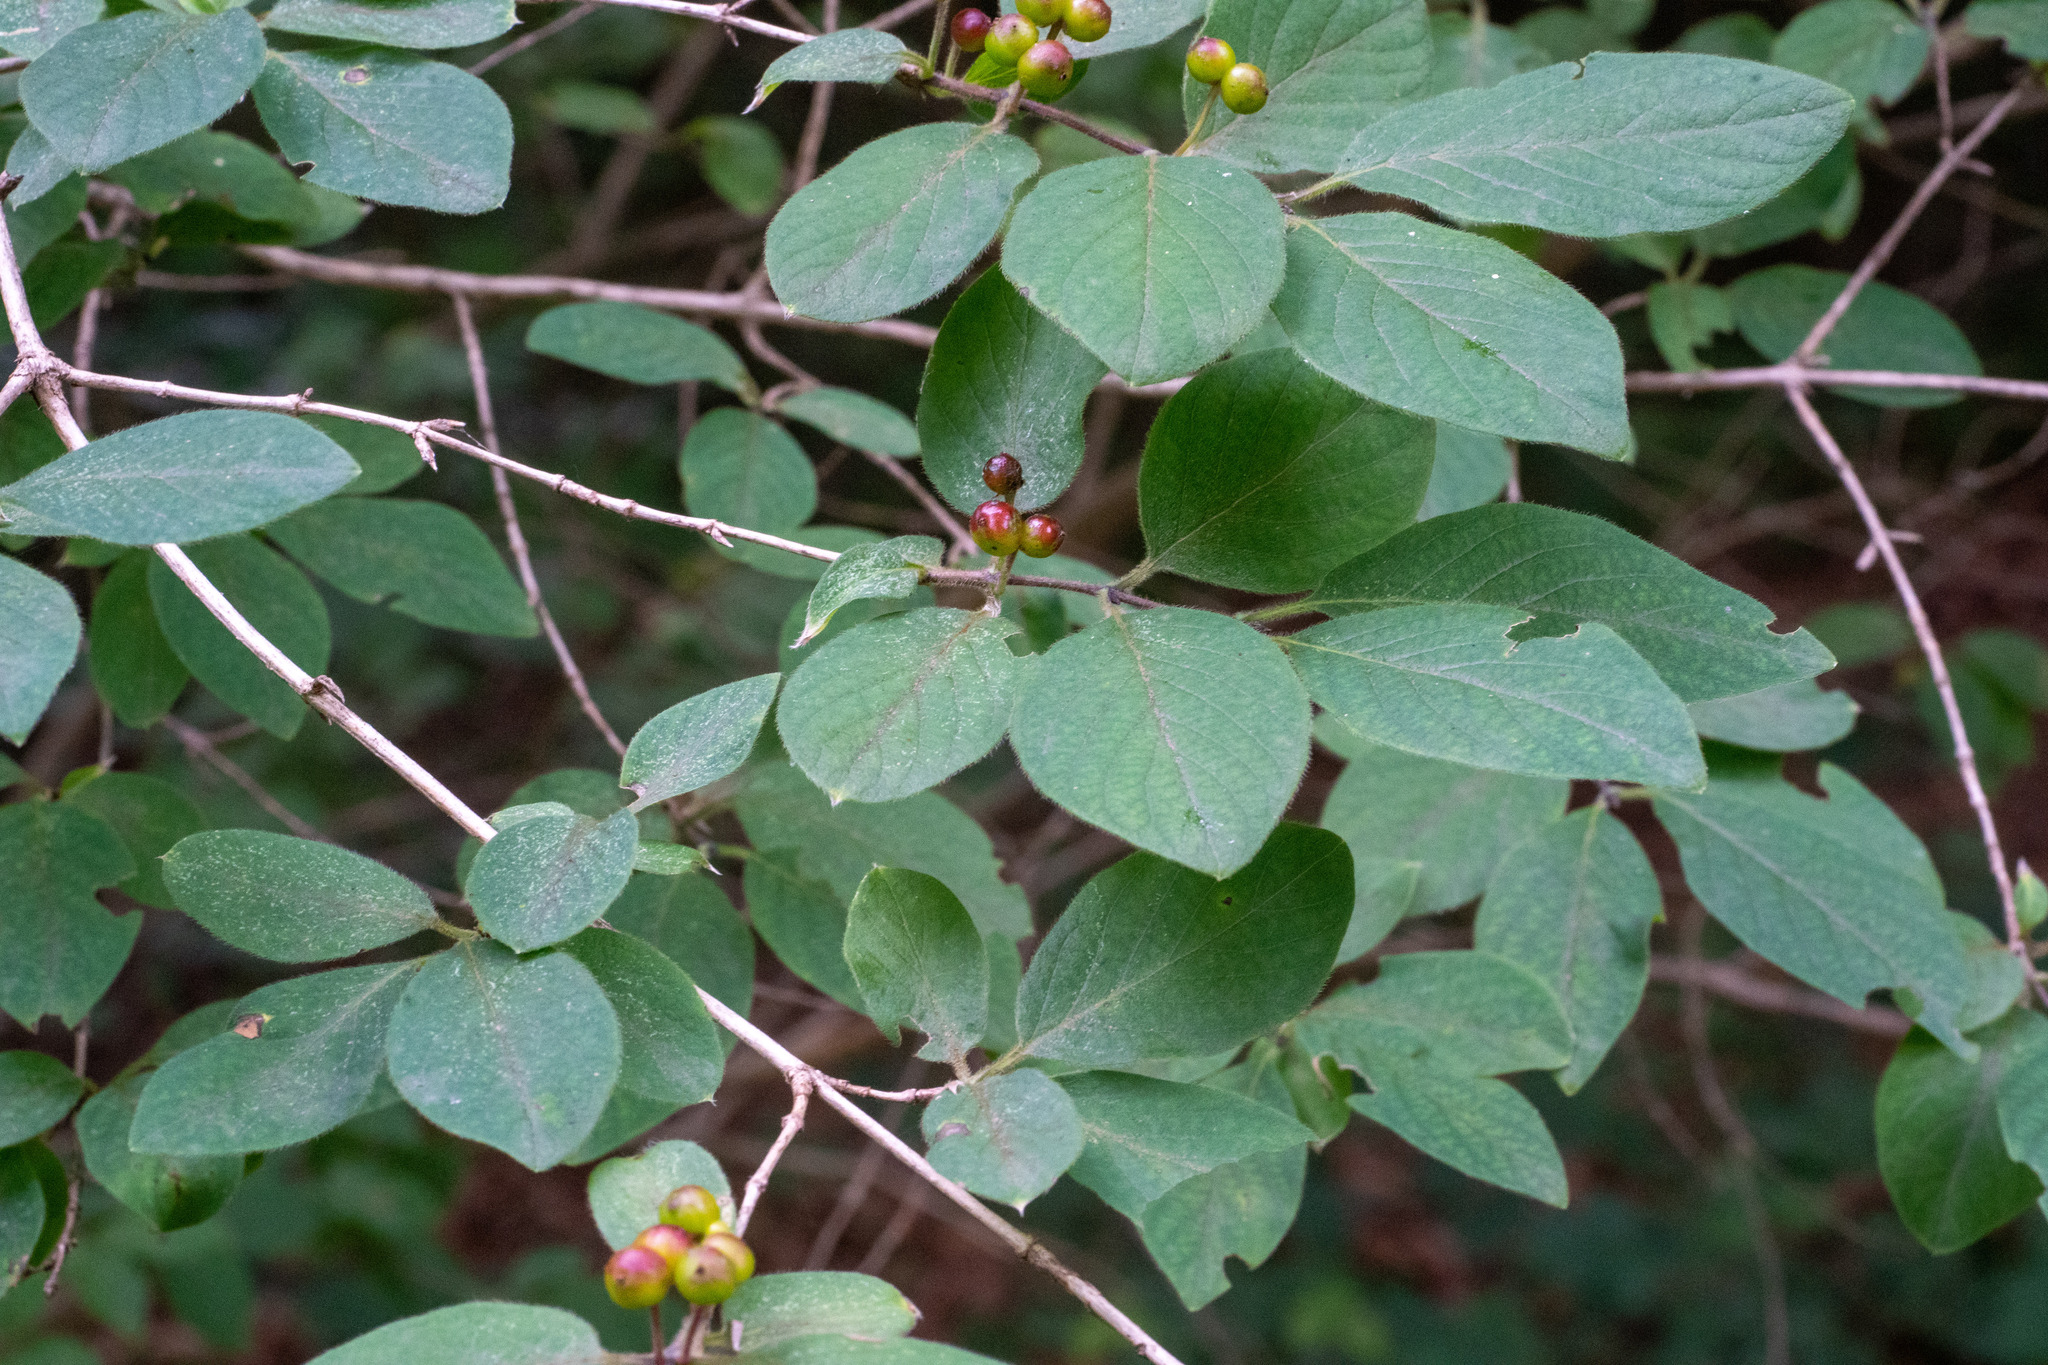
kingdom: Plantae
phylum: Tracheophyta
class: Magnoliopsida
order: Dipsacales
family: Caprifoliaceae
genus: Lonicera
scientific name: Lonicera xylosteum
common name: Fly honeysuckle
